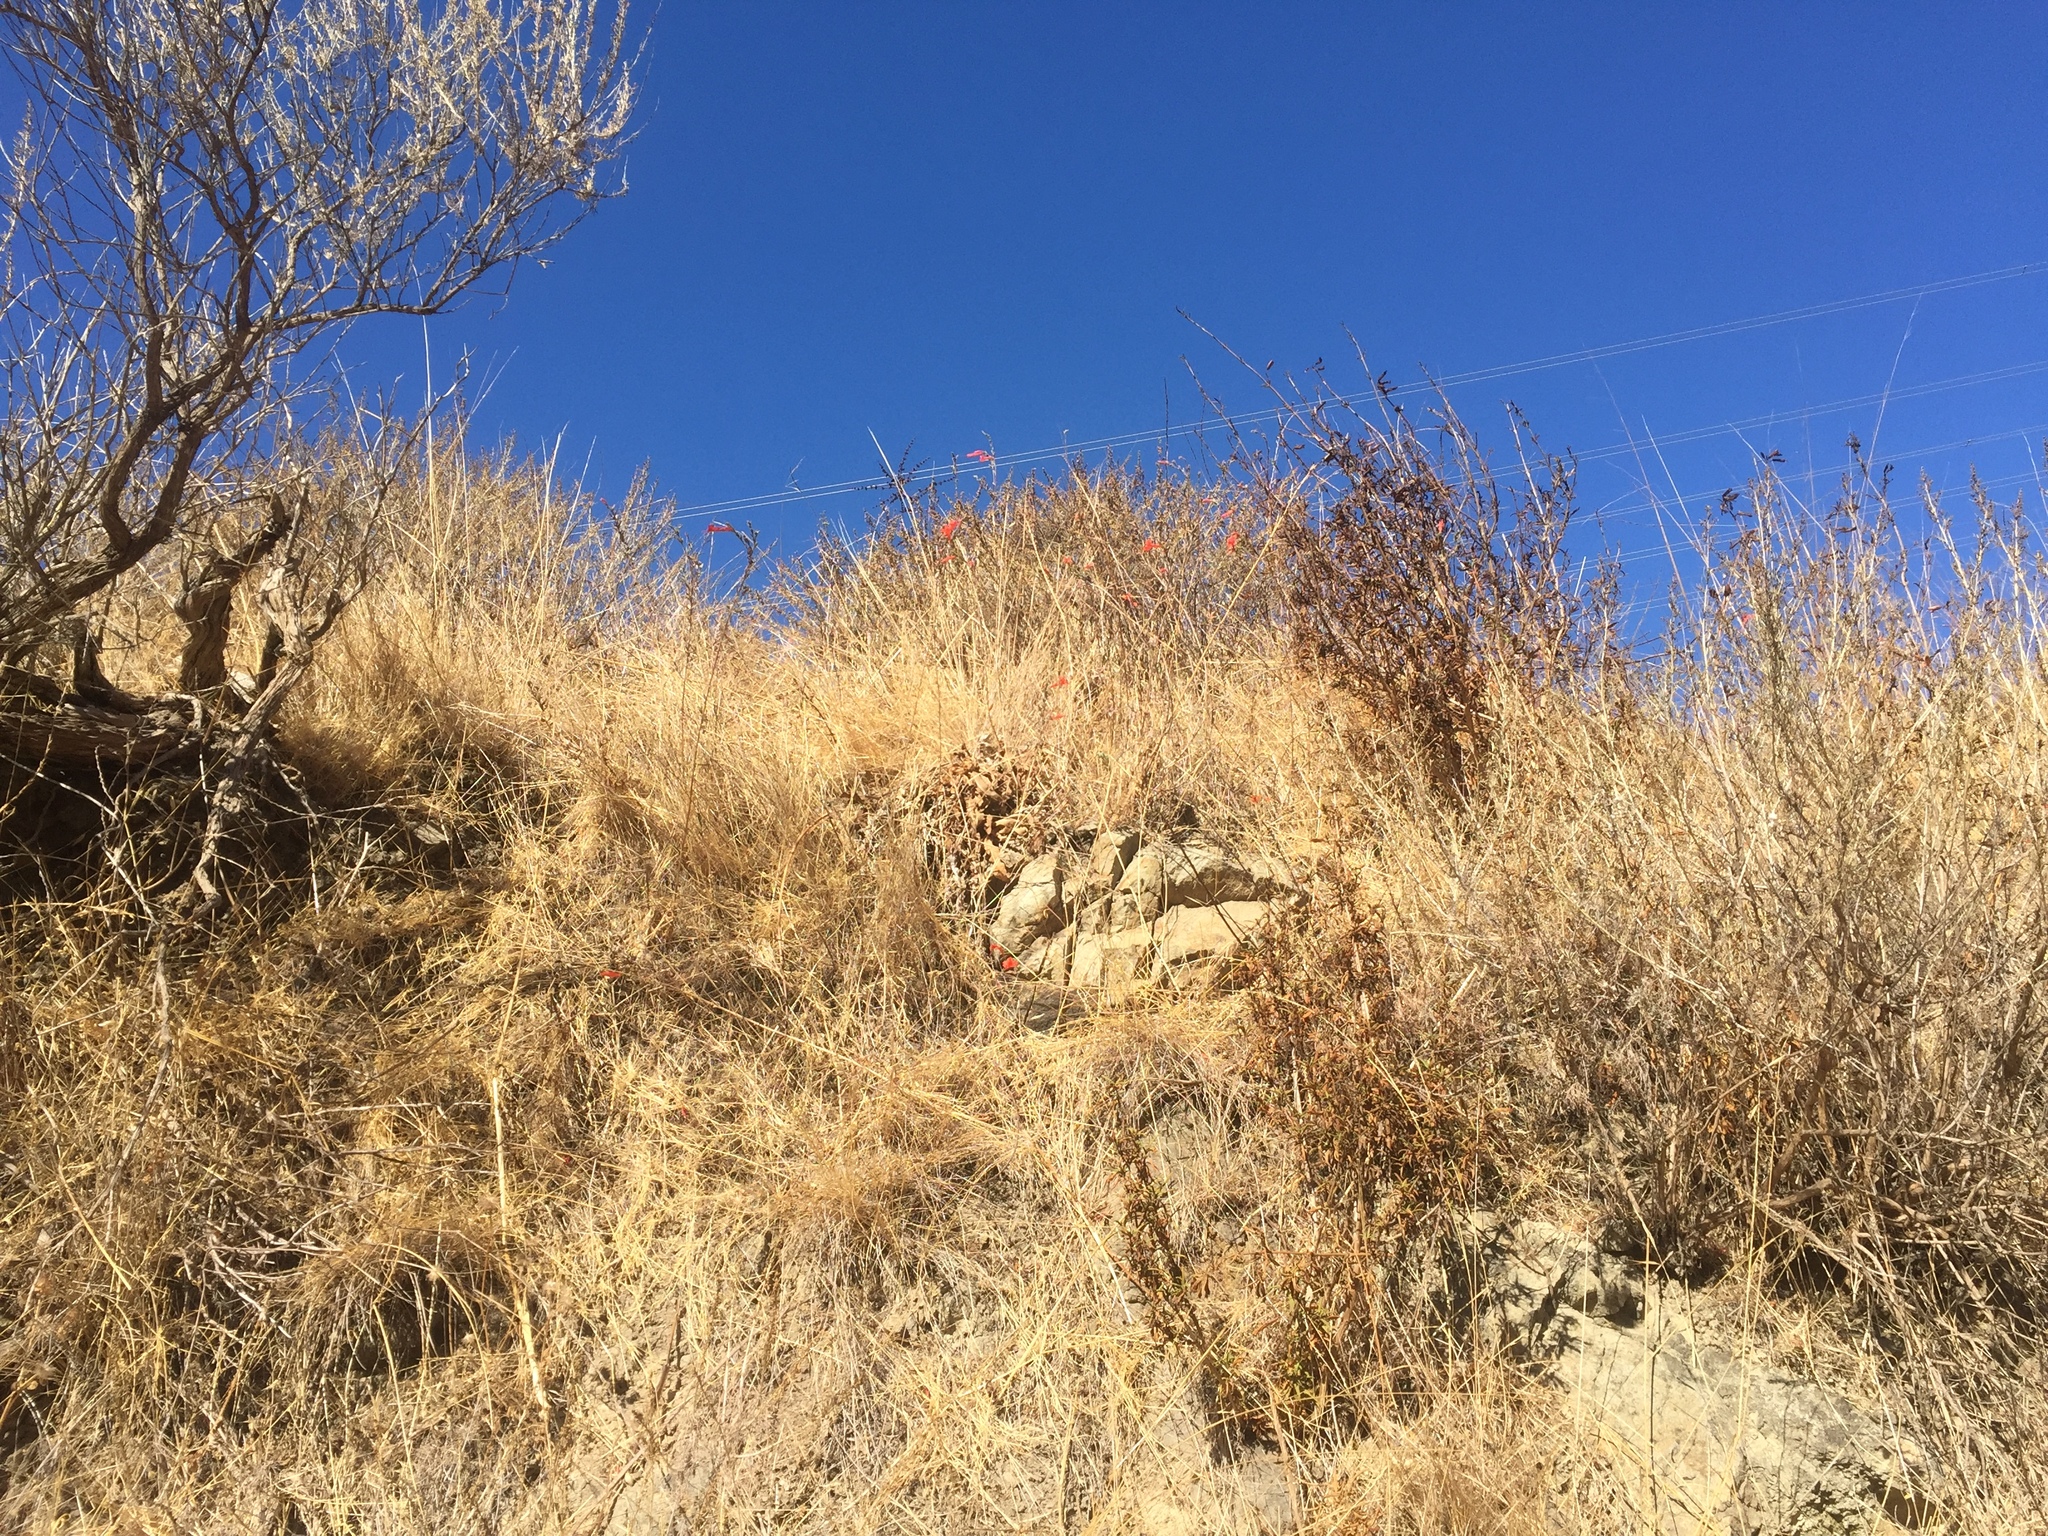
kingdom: Plantae
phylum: Tracheophyta
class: Magnoliopsida
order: Myrtales
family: Onagraceae
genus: Epilobium
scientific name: Epilobium canum
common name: California-fuchsia
